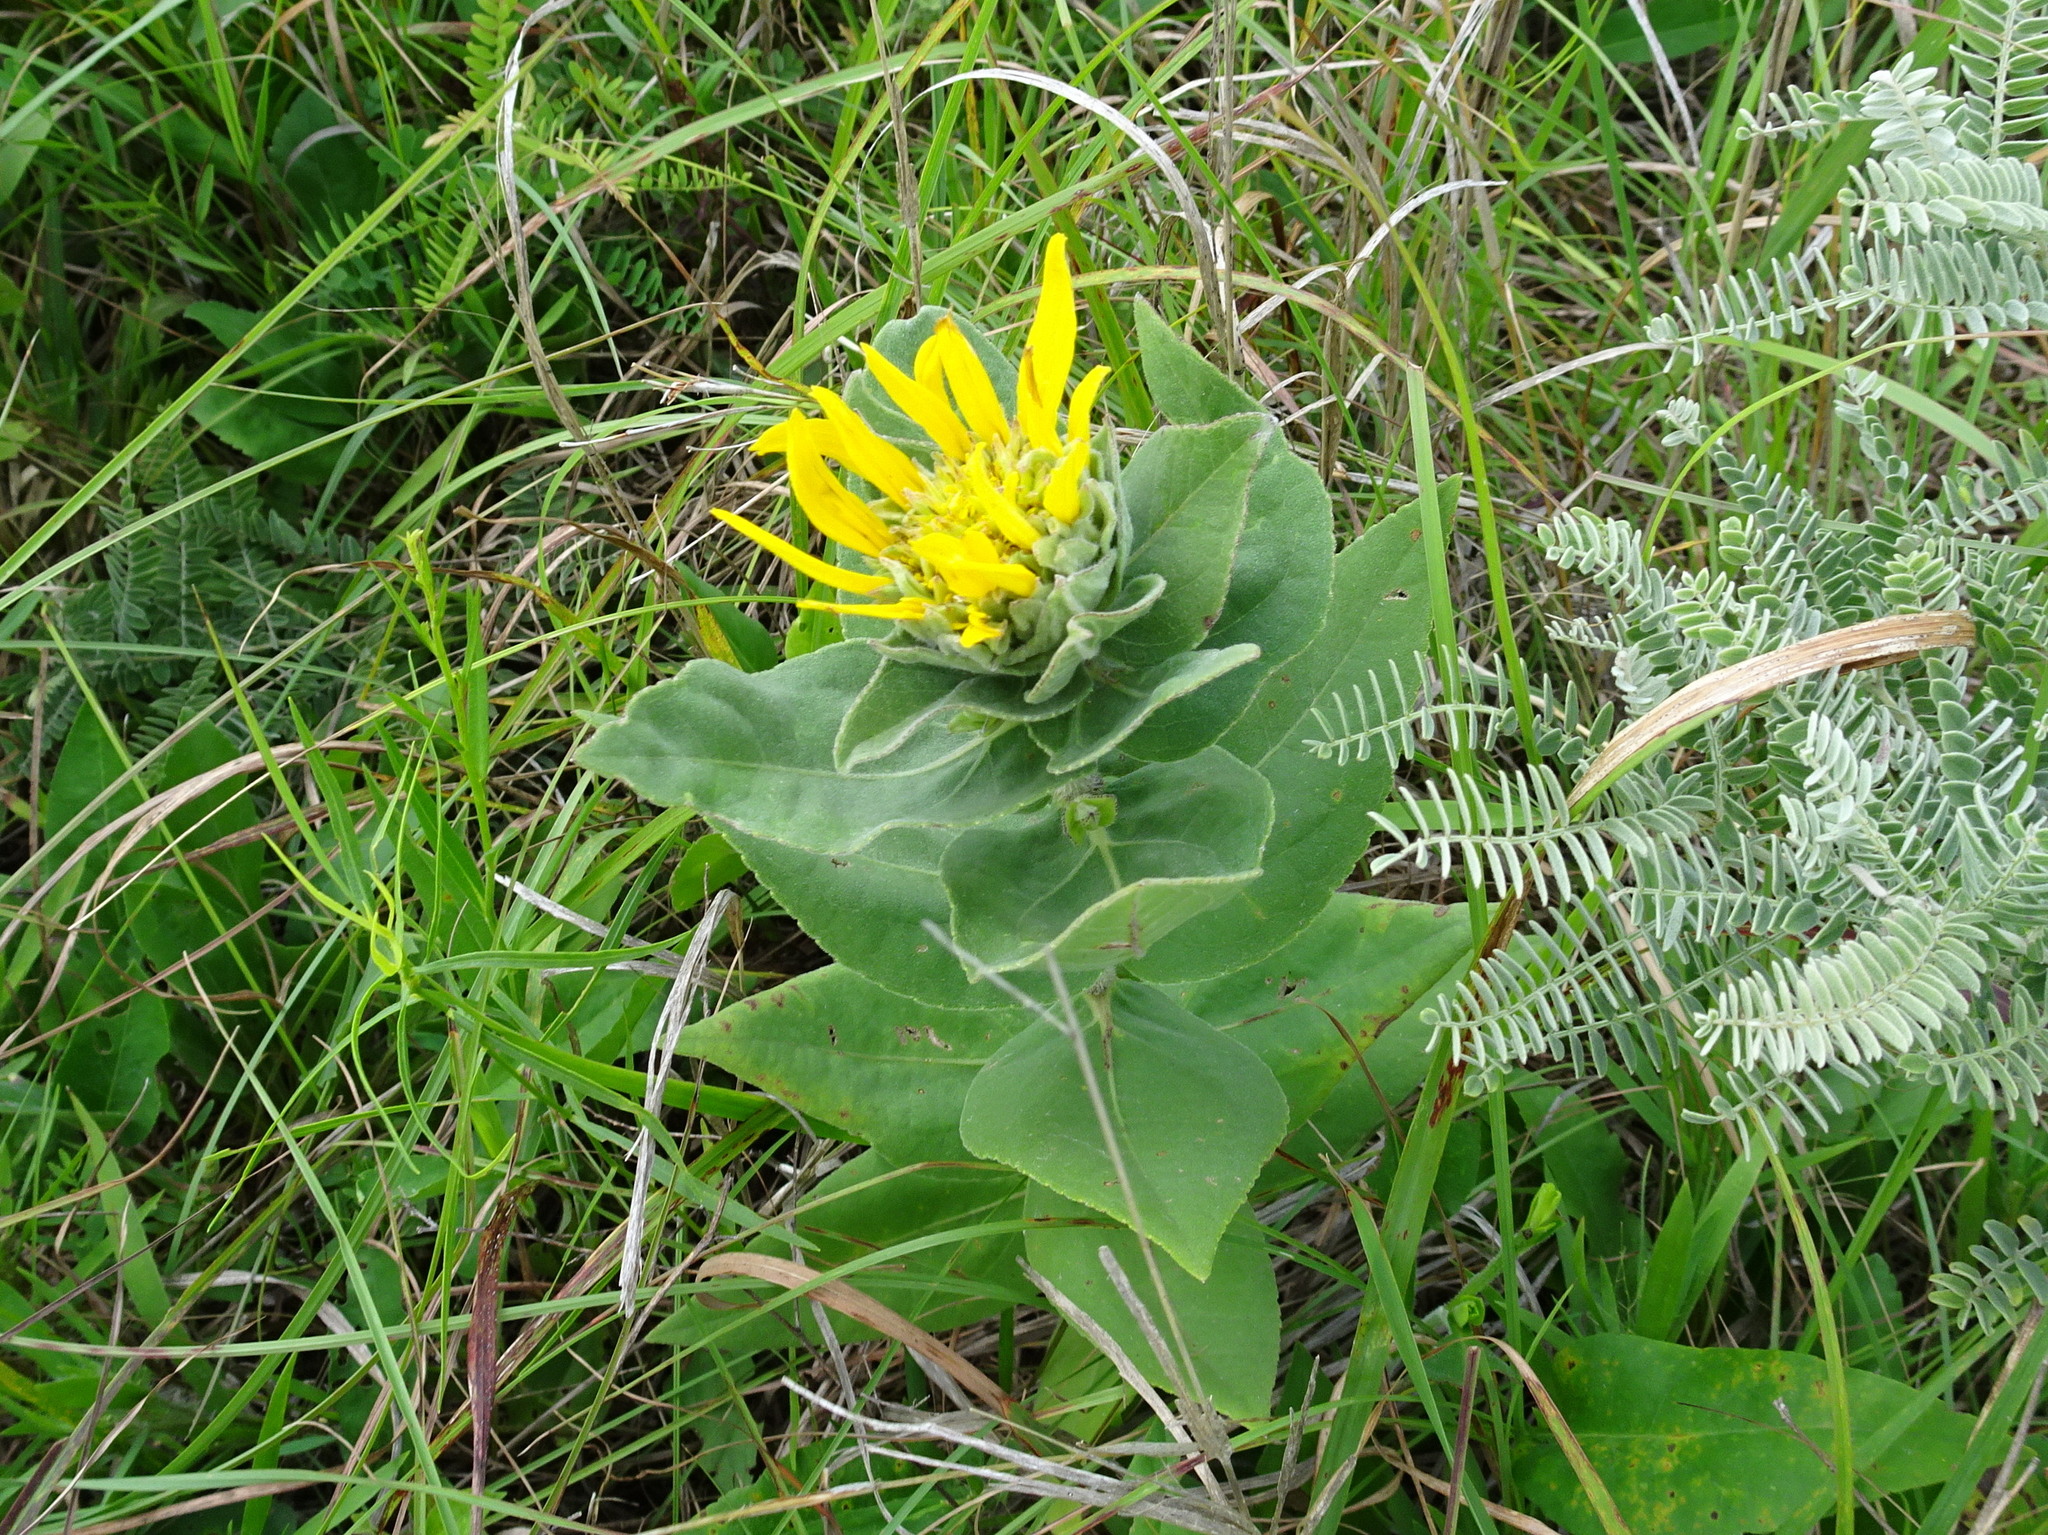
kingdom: Plantae
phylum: Tracheophyta
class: Magnoliopsida
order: Asterales
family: Asteraceae
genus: Helianthus
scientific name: Helianthus mollis
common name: Ashy sunflower
